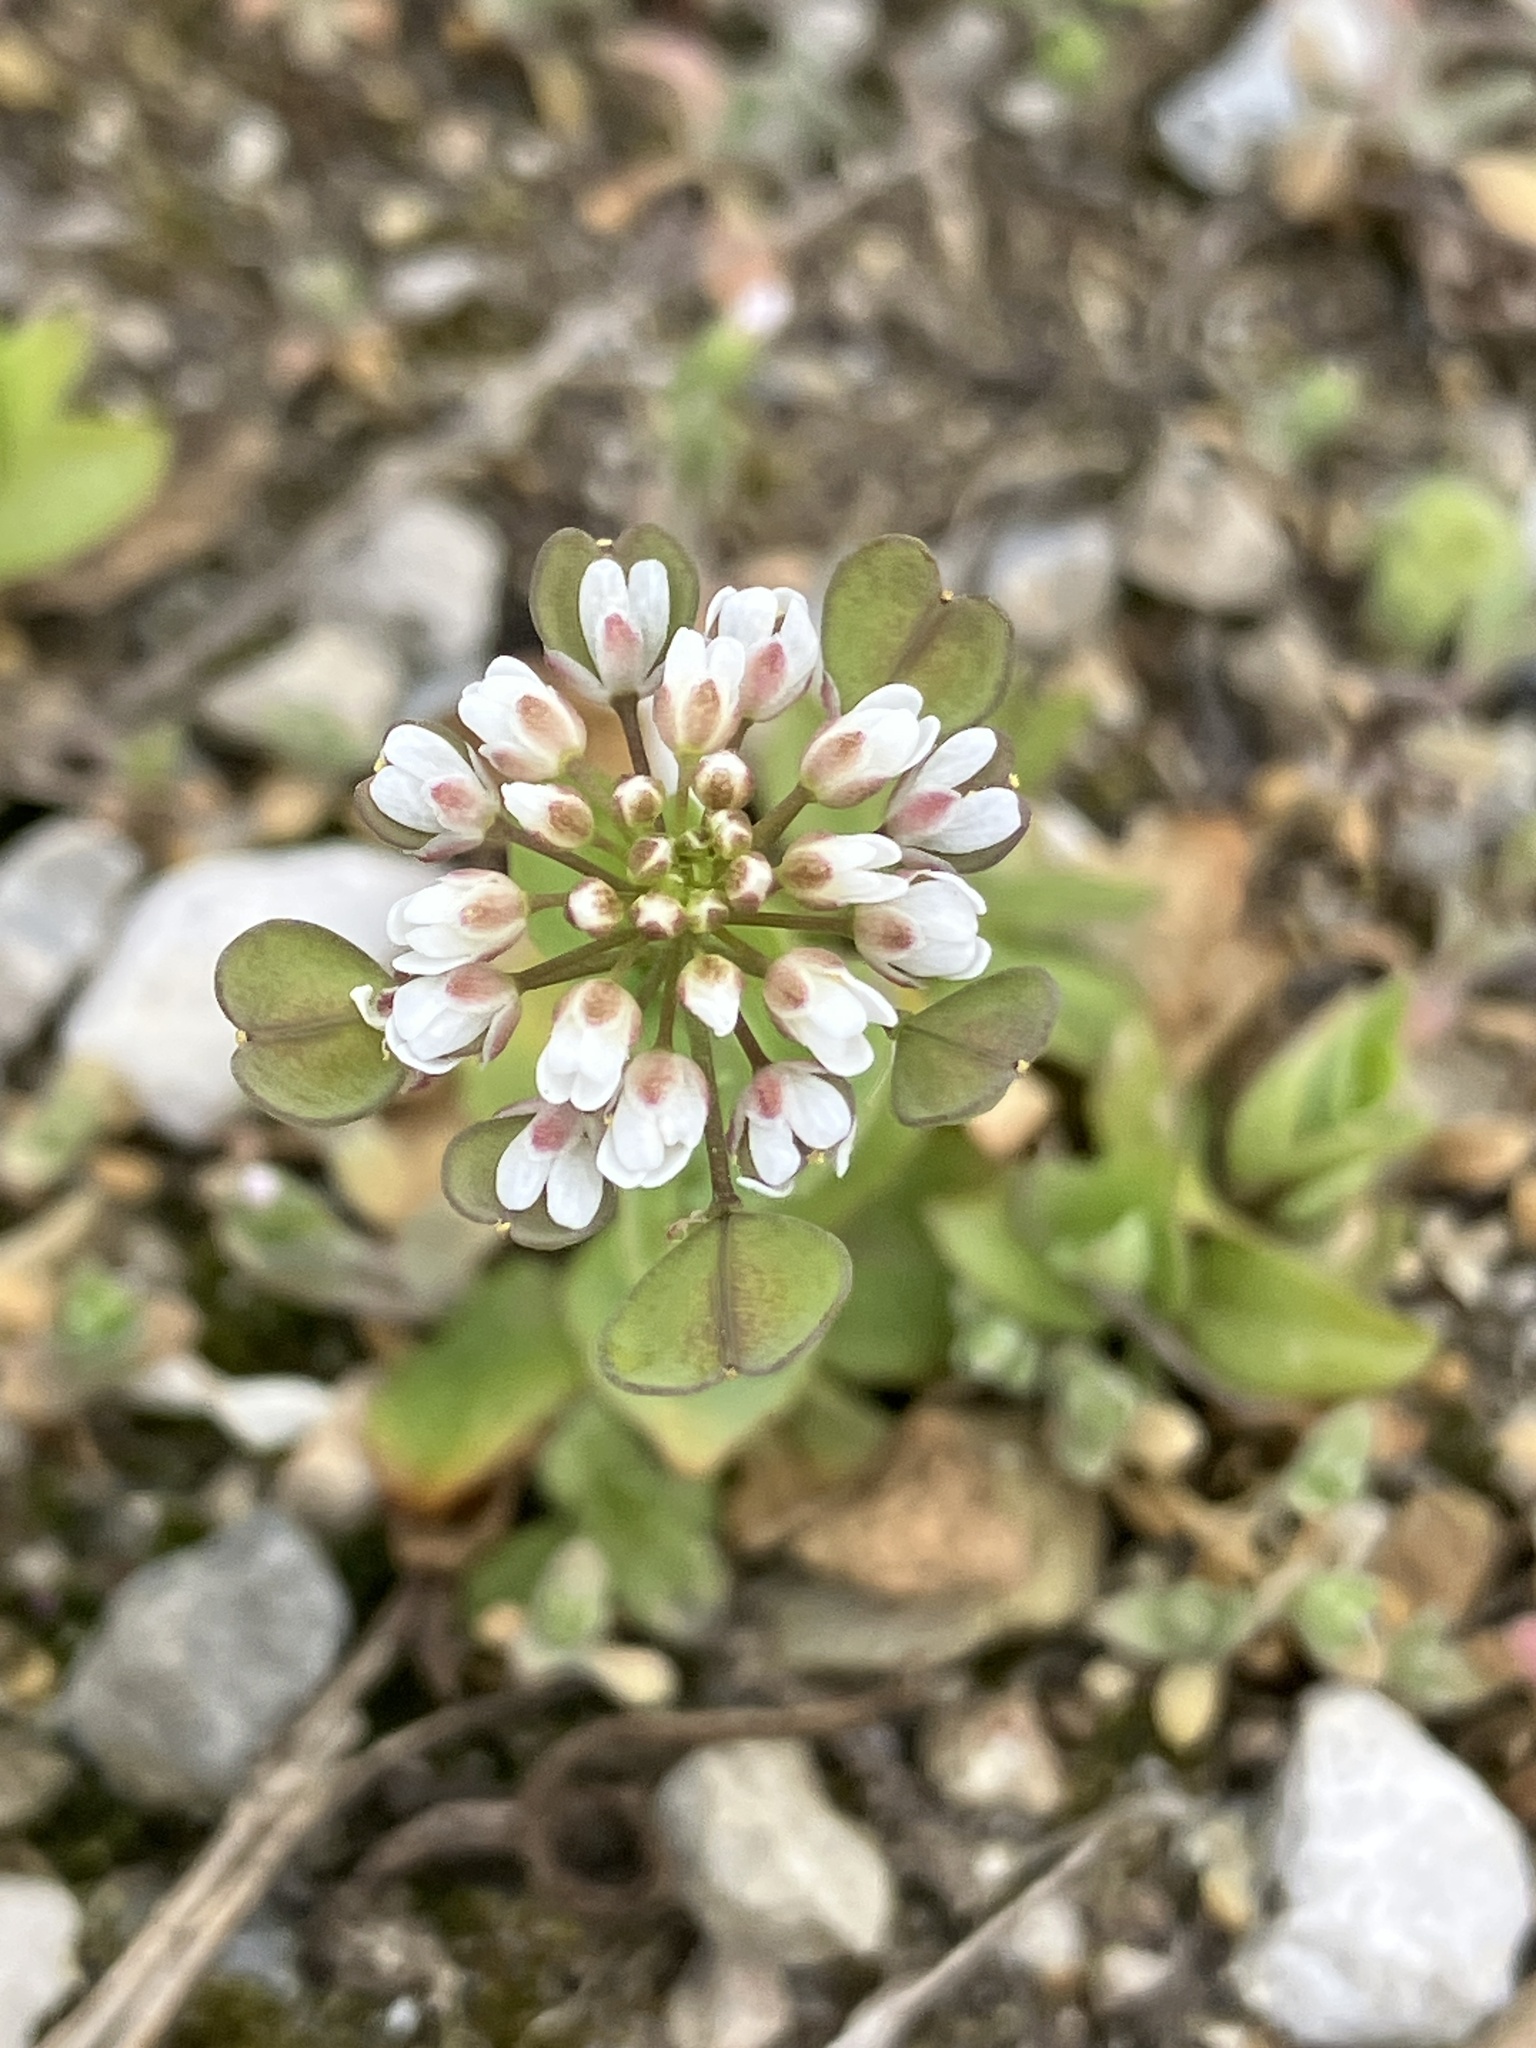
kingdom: Plantae
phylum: Tracheophyta
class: Magnoliopsida
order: Brassicales
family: Brassicaceae
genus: Noccaea
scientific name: Noccaea perfoliata
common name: Perfoliate pennycress
